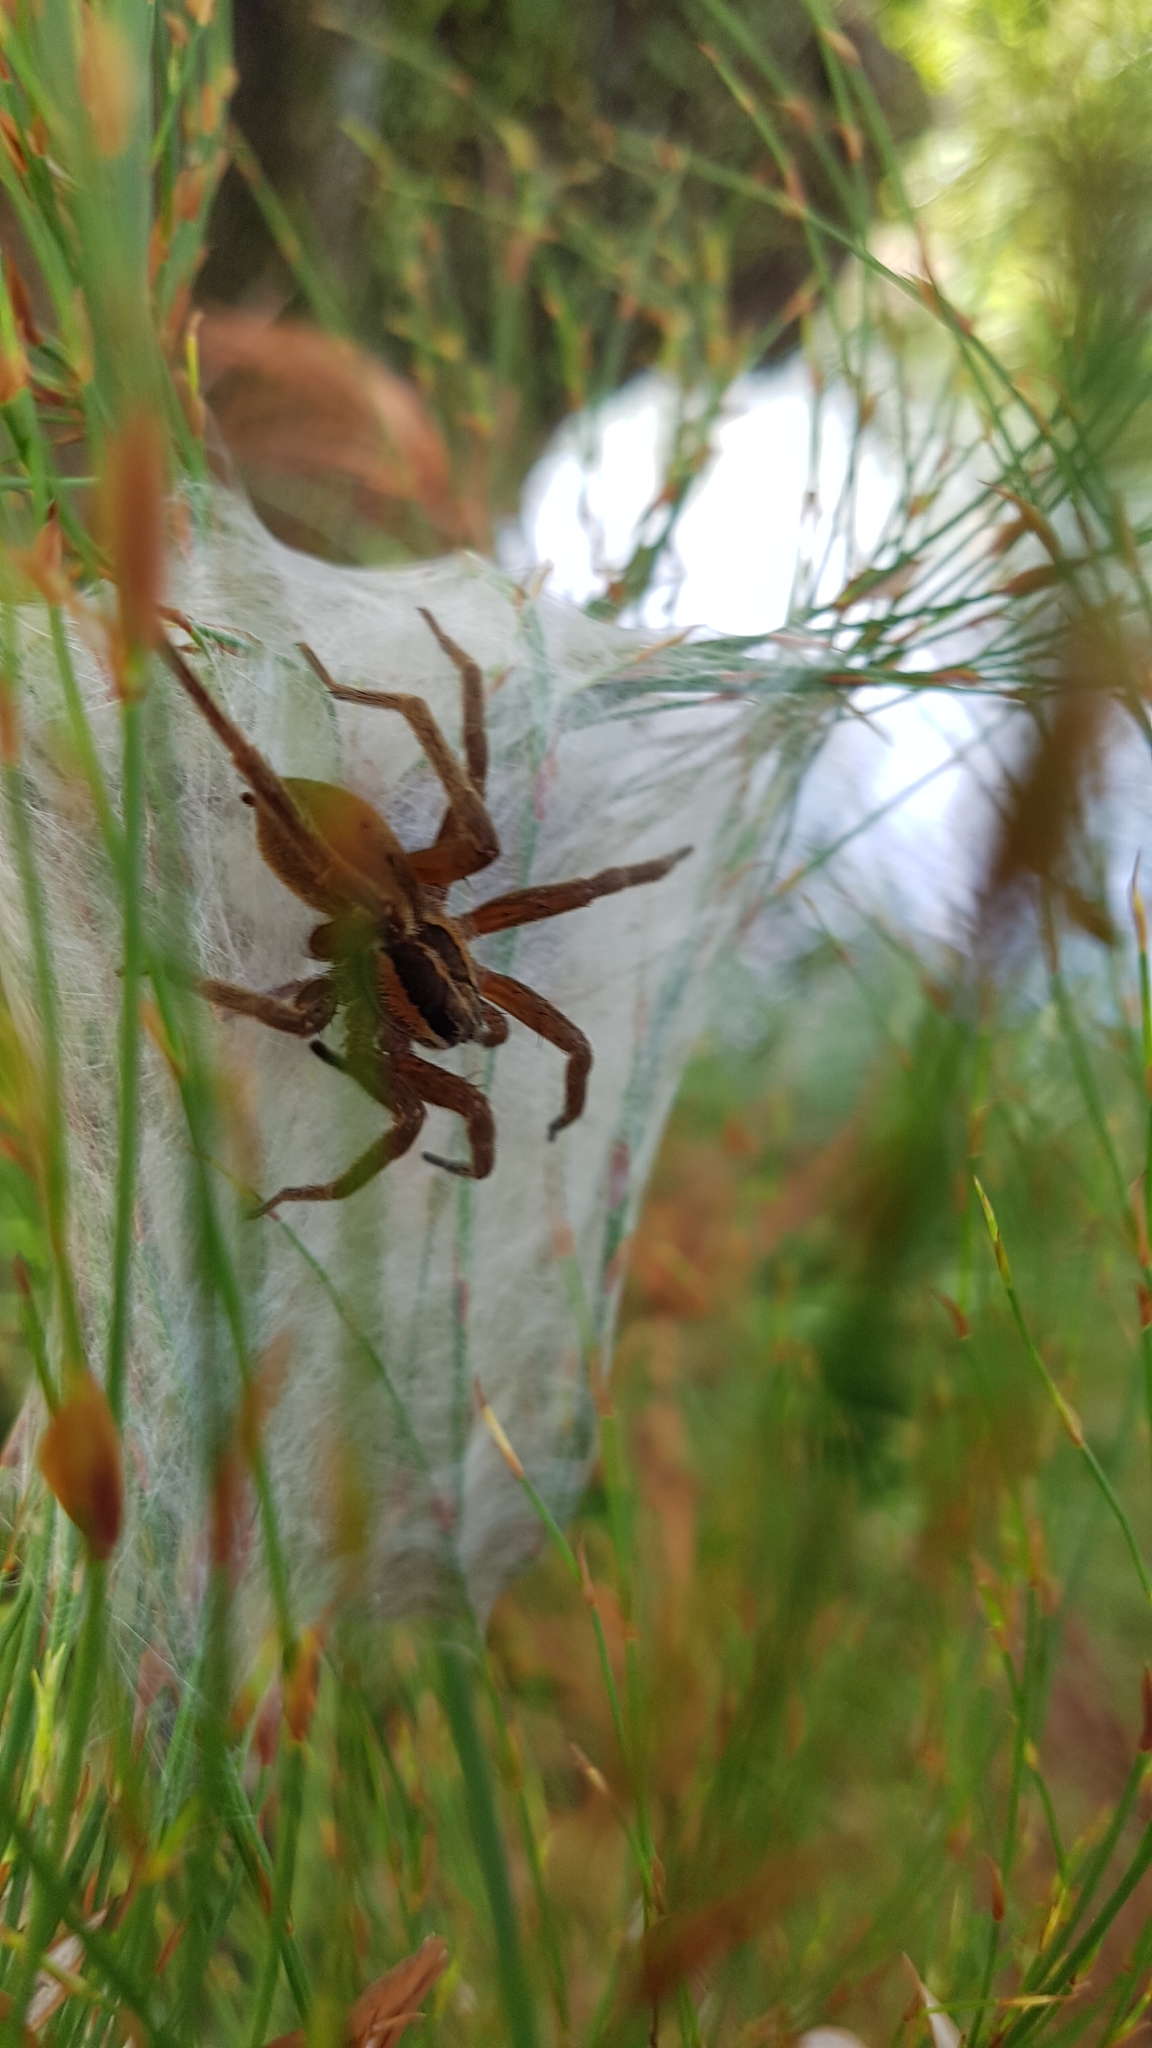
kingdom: Animalia
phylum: Arthropoda
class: Arachnida
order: Araneae
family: Pisauridae
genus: Dolomedes
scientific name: Dolomedes minor
